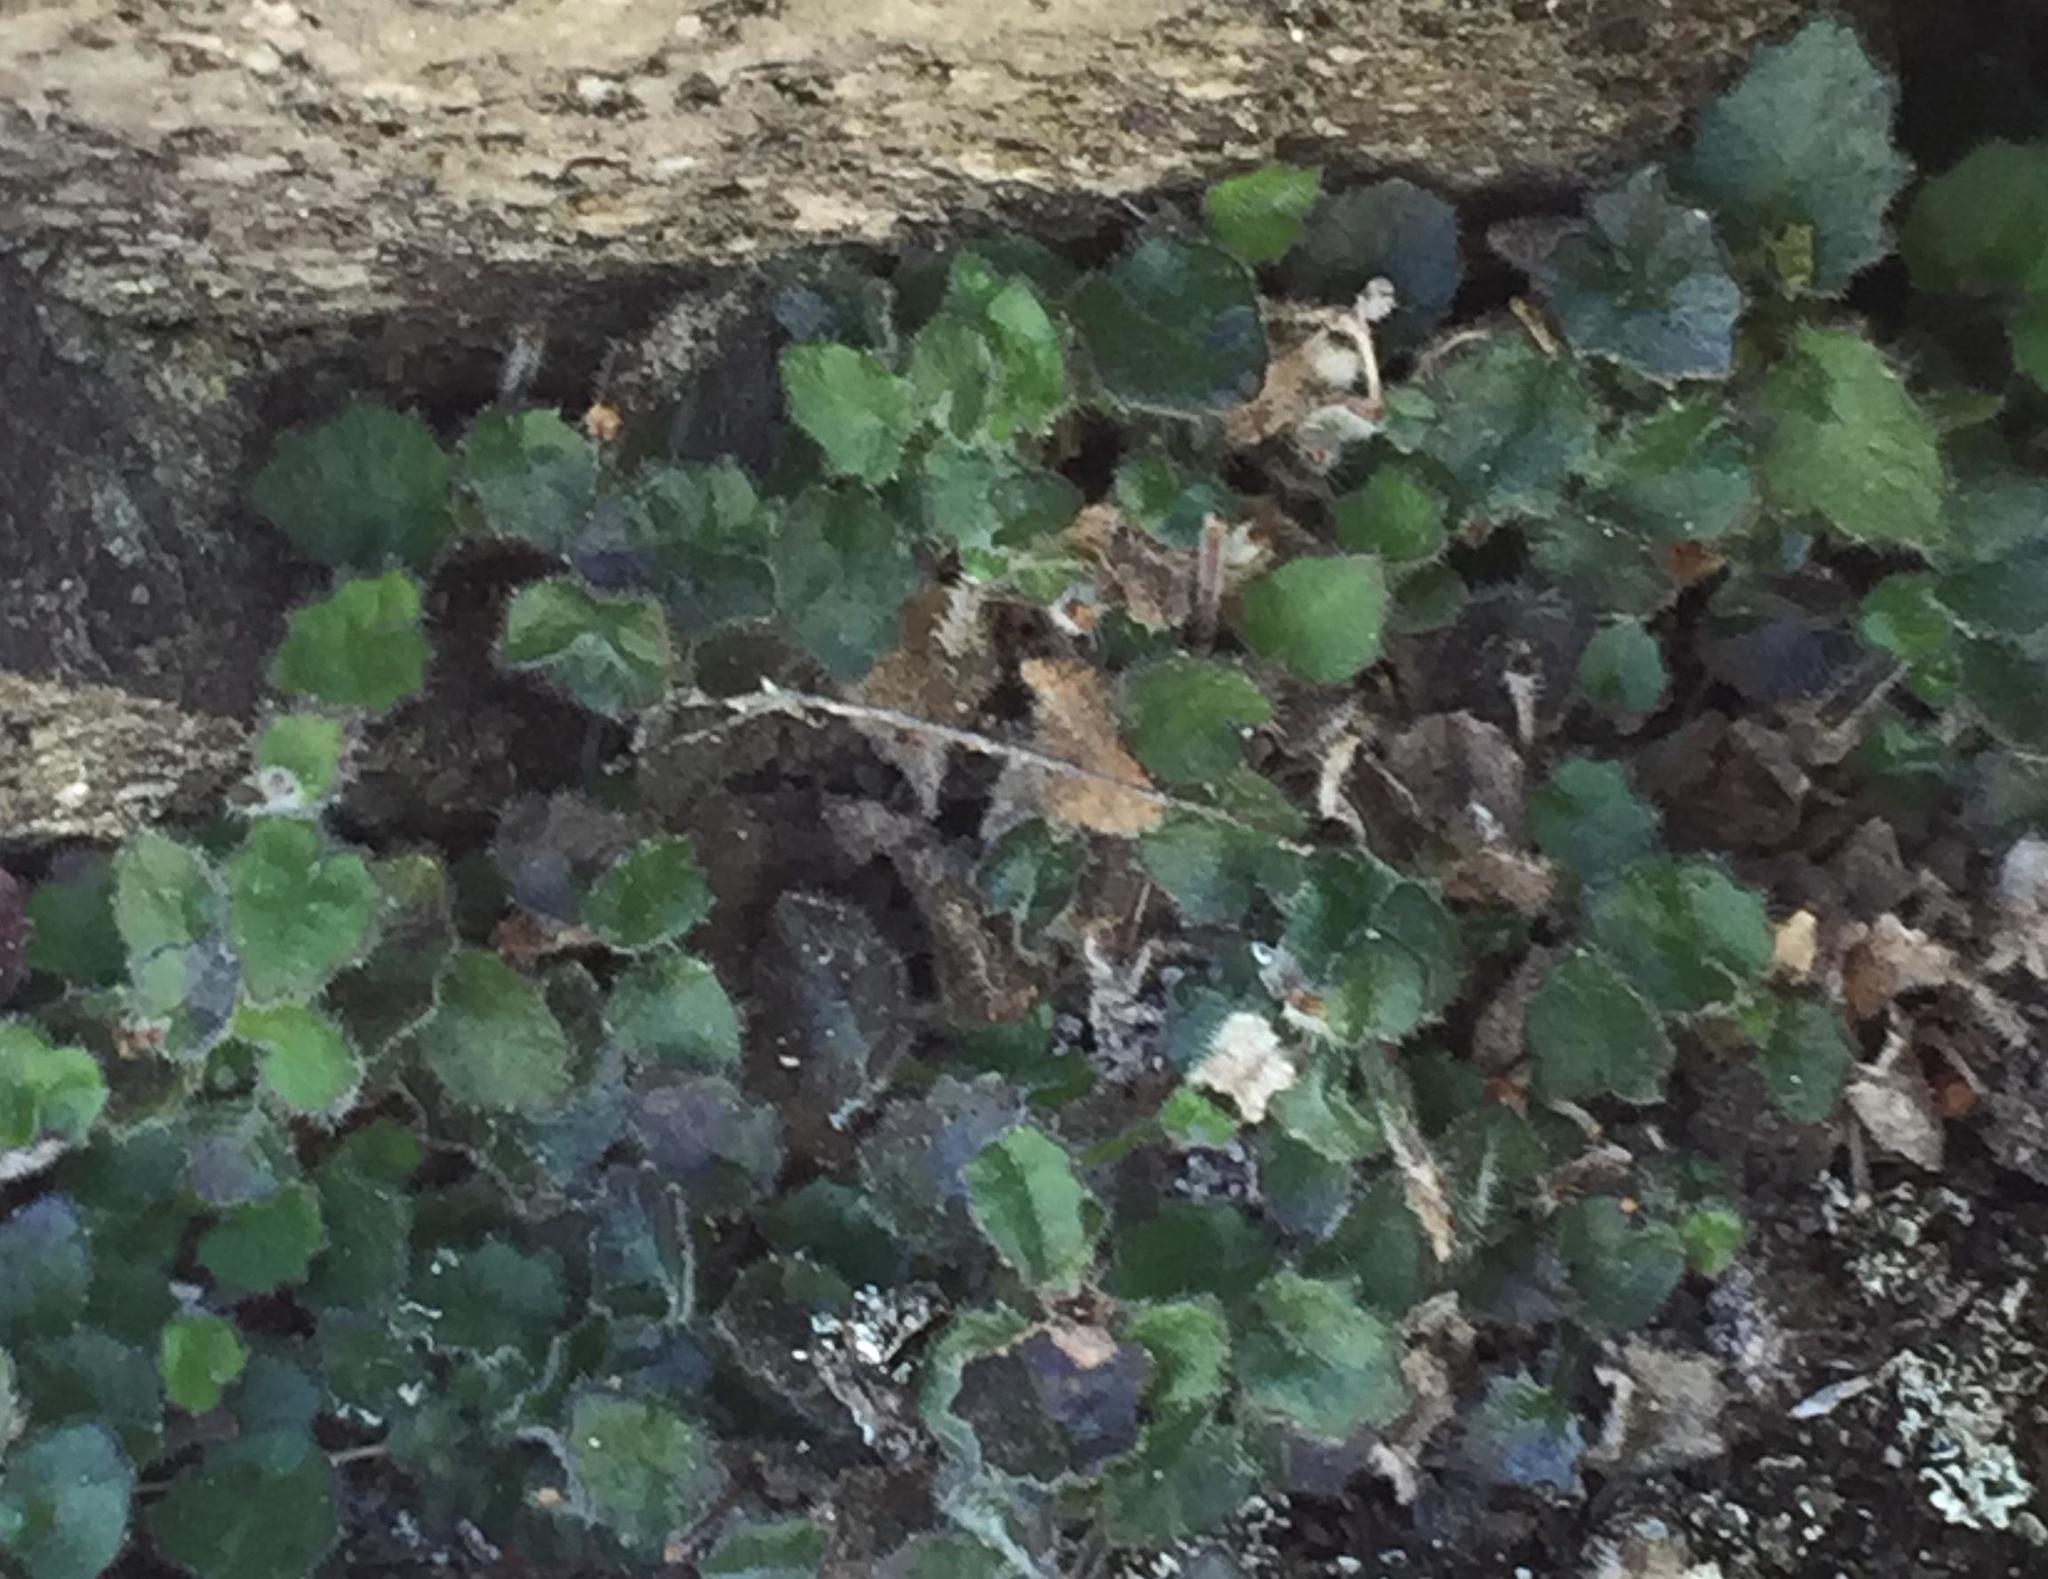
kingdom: Plantae
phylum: Tracheophyta
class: Magnoliopsida
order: Asterales
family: Campanulaceae
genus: Lobelia
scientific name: Lobelia ardisiandroides
